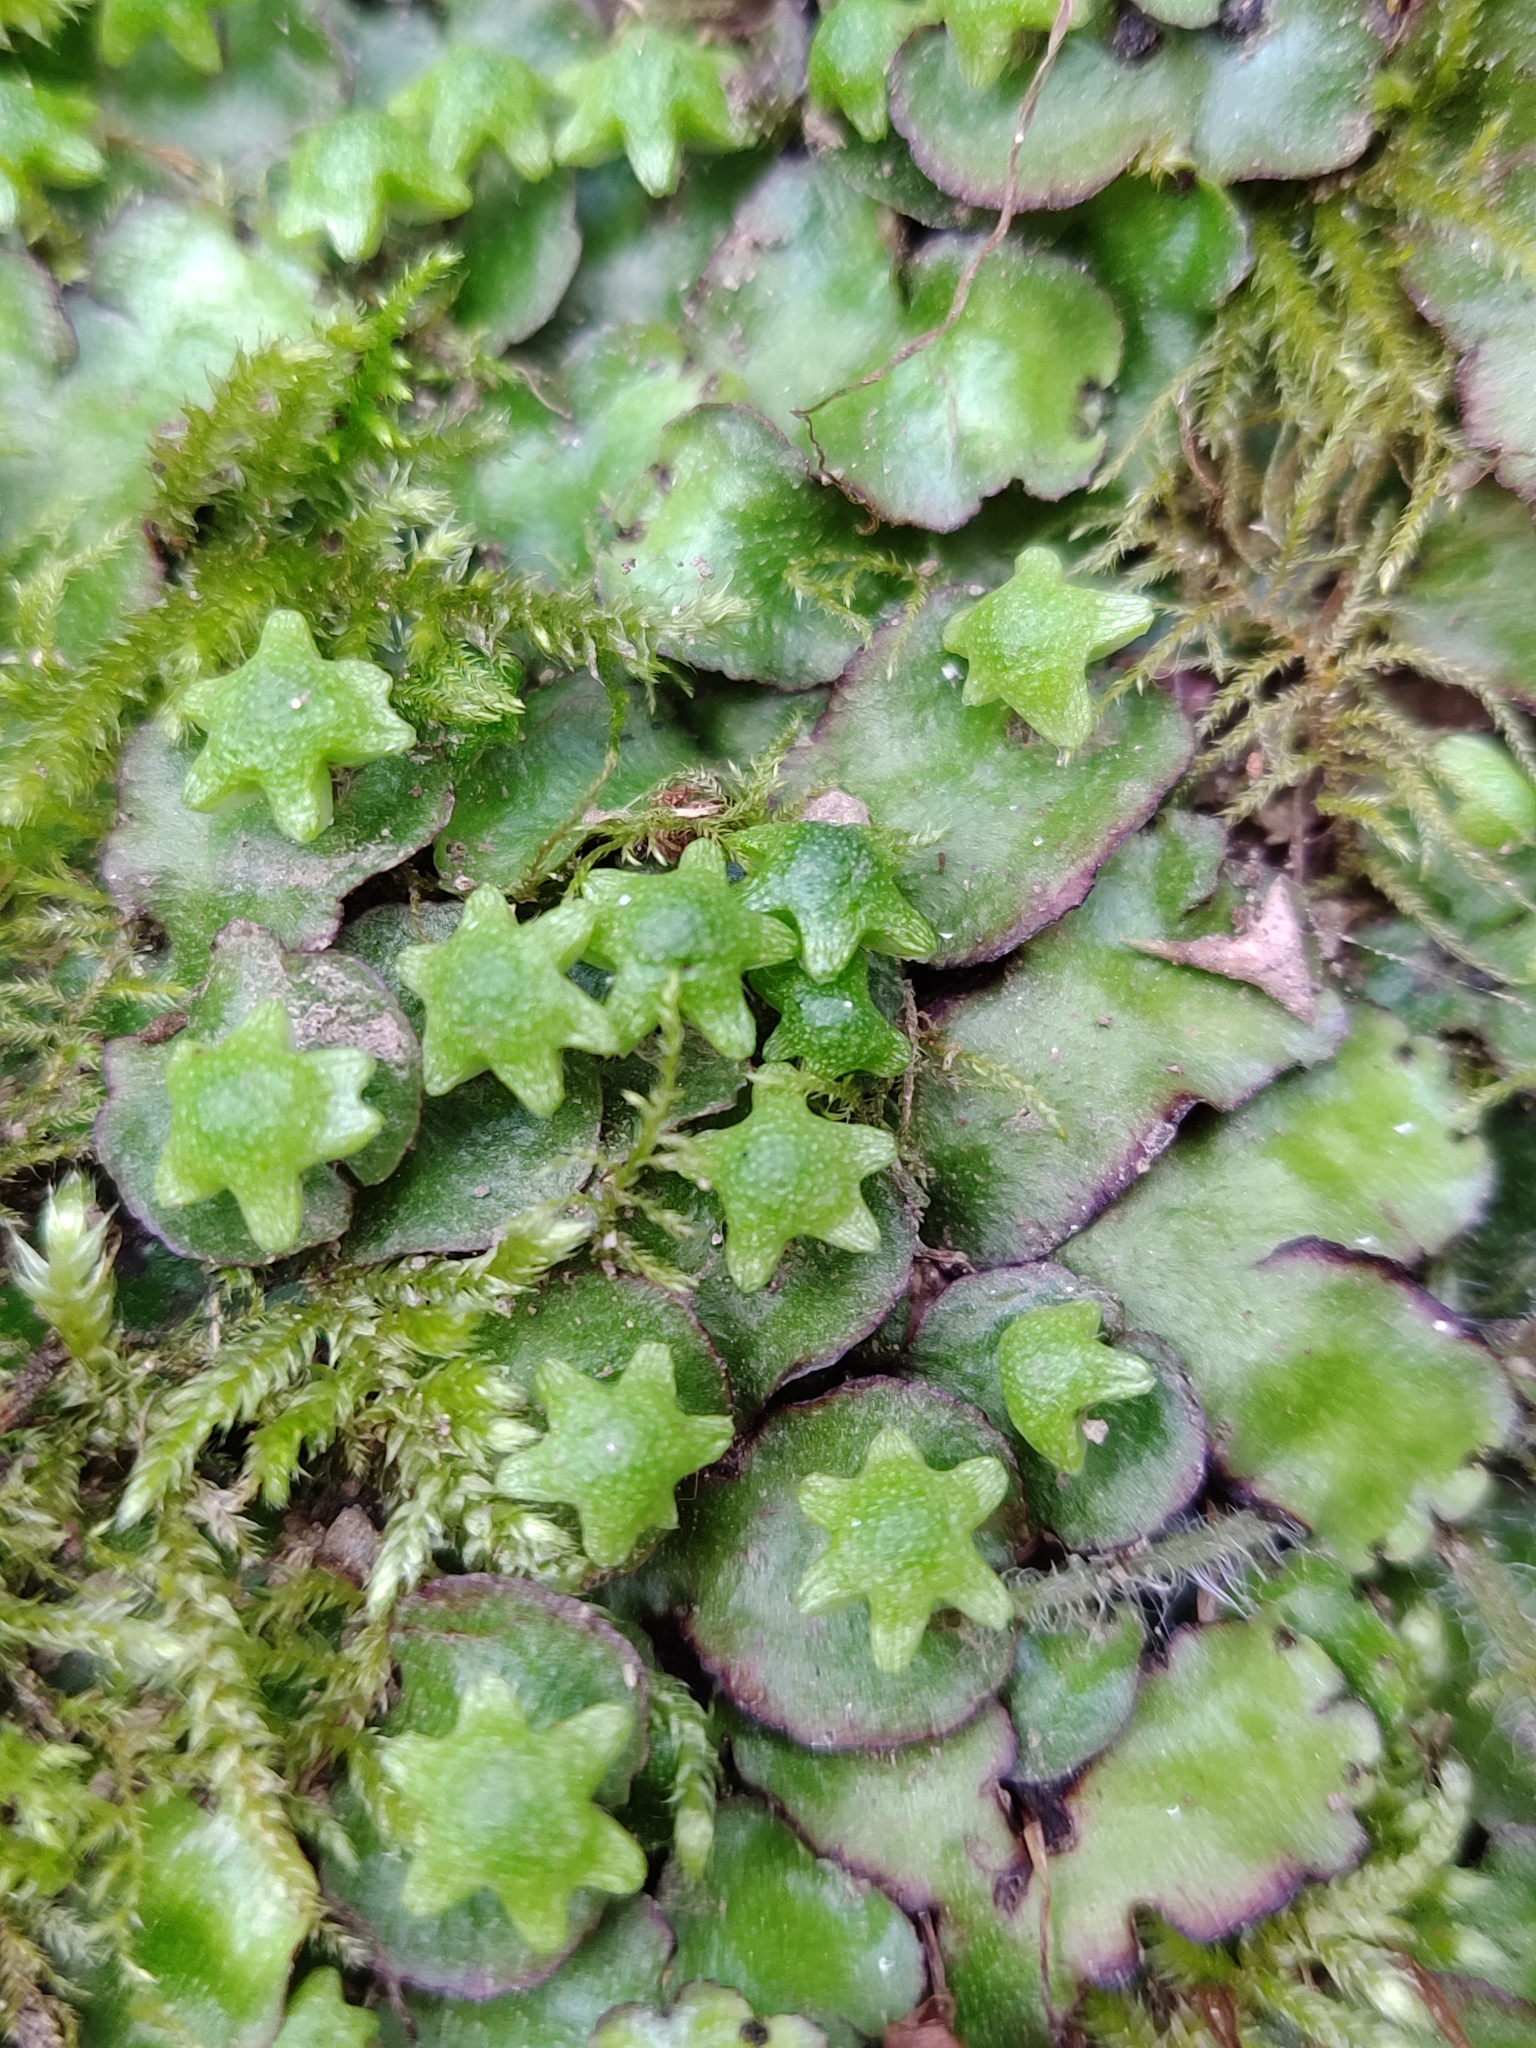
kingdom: Plantae
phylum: Marchantiophyta
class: Marchantiopsida
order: Marchantiales
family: Aytoniaceae
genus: Reboulia
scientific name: Reboulia hemisphaerica
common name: Purple-margined liverwort
